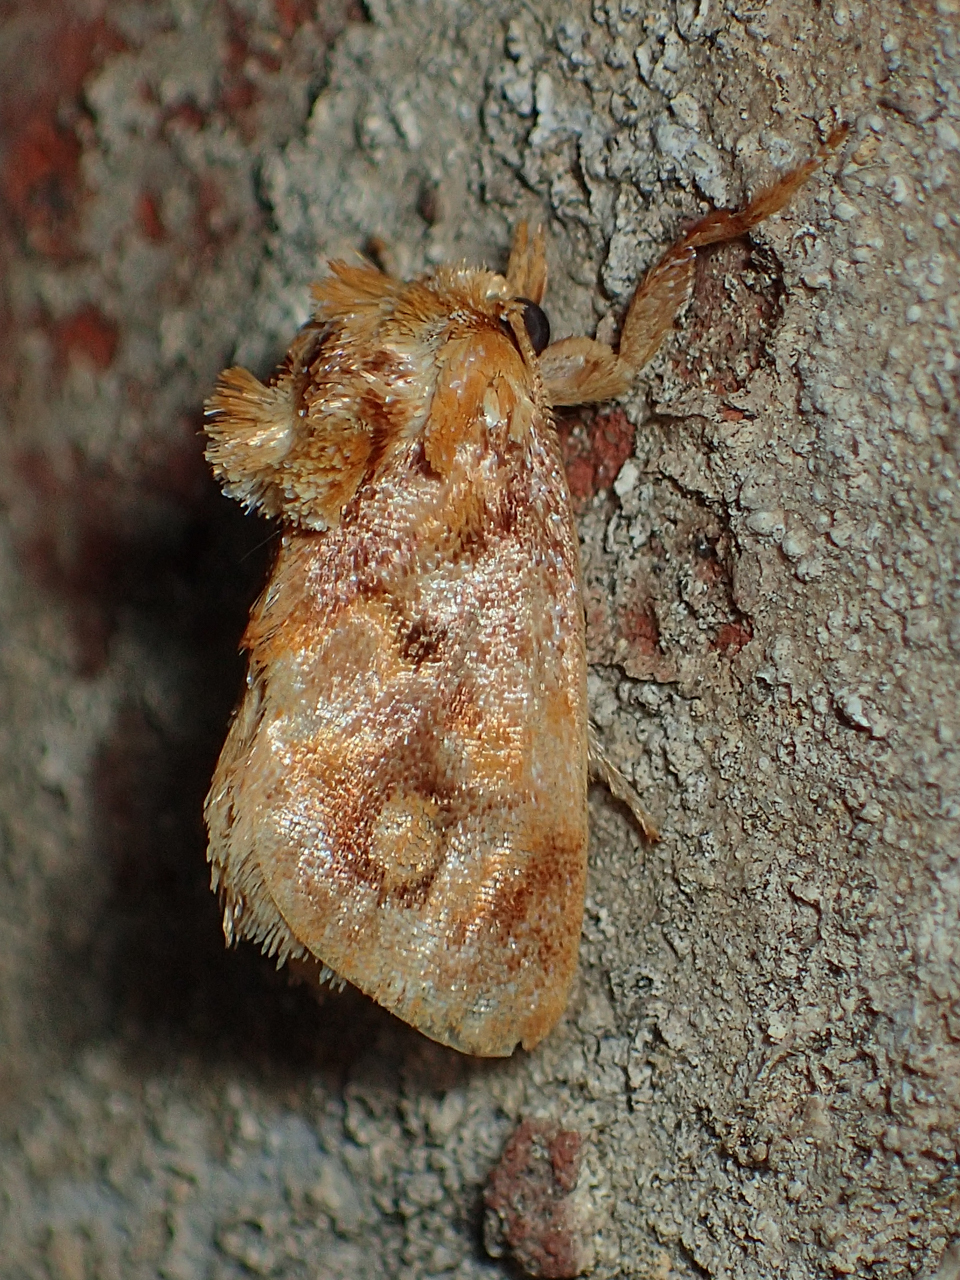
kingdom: Animalia
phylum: Arthropoda
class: Insecta
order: Lepidoptera
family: Limacodidae
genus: Isochaetes
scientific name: Isochaetes beutenmuelleri
